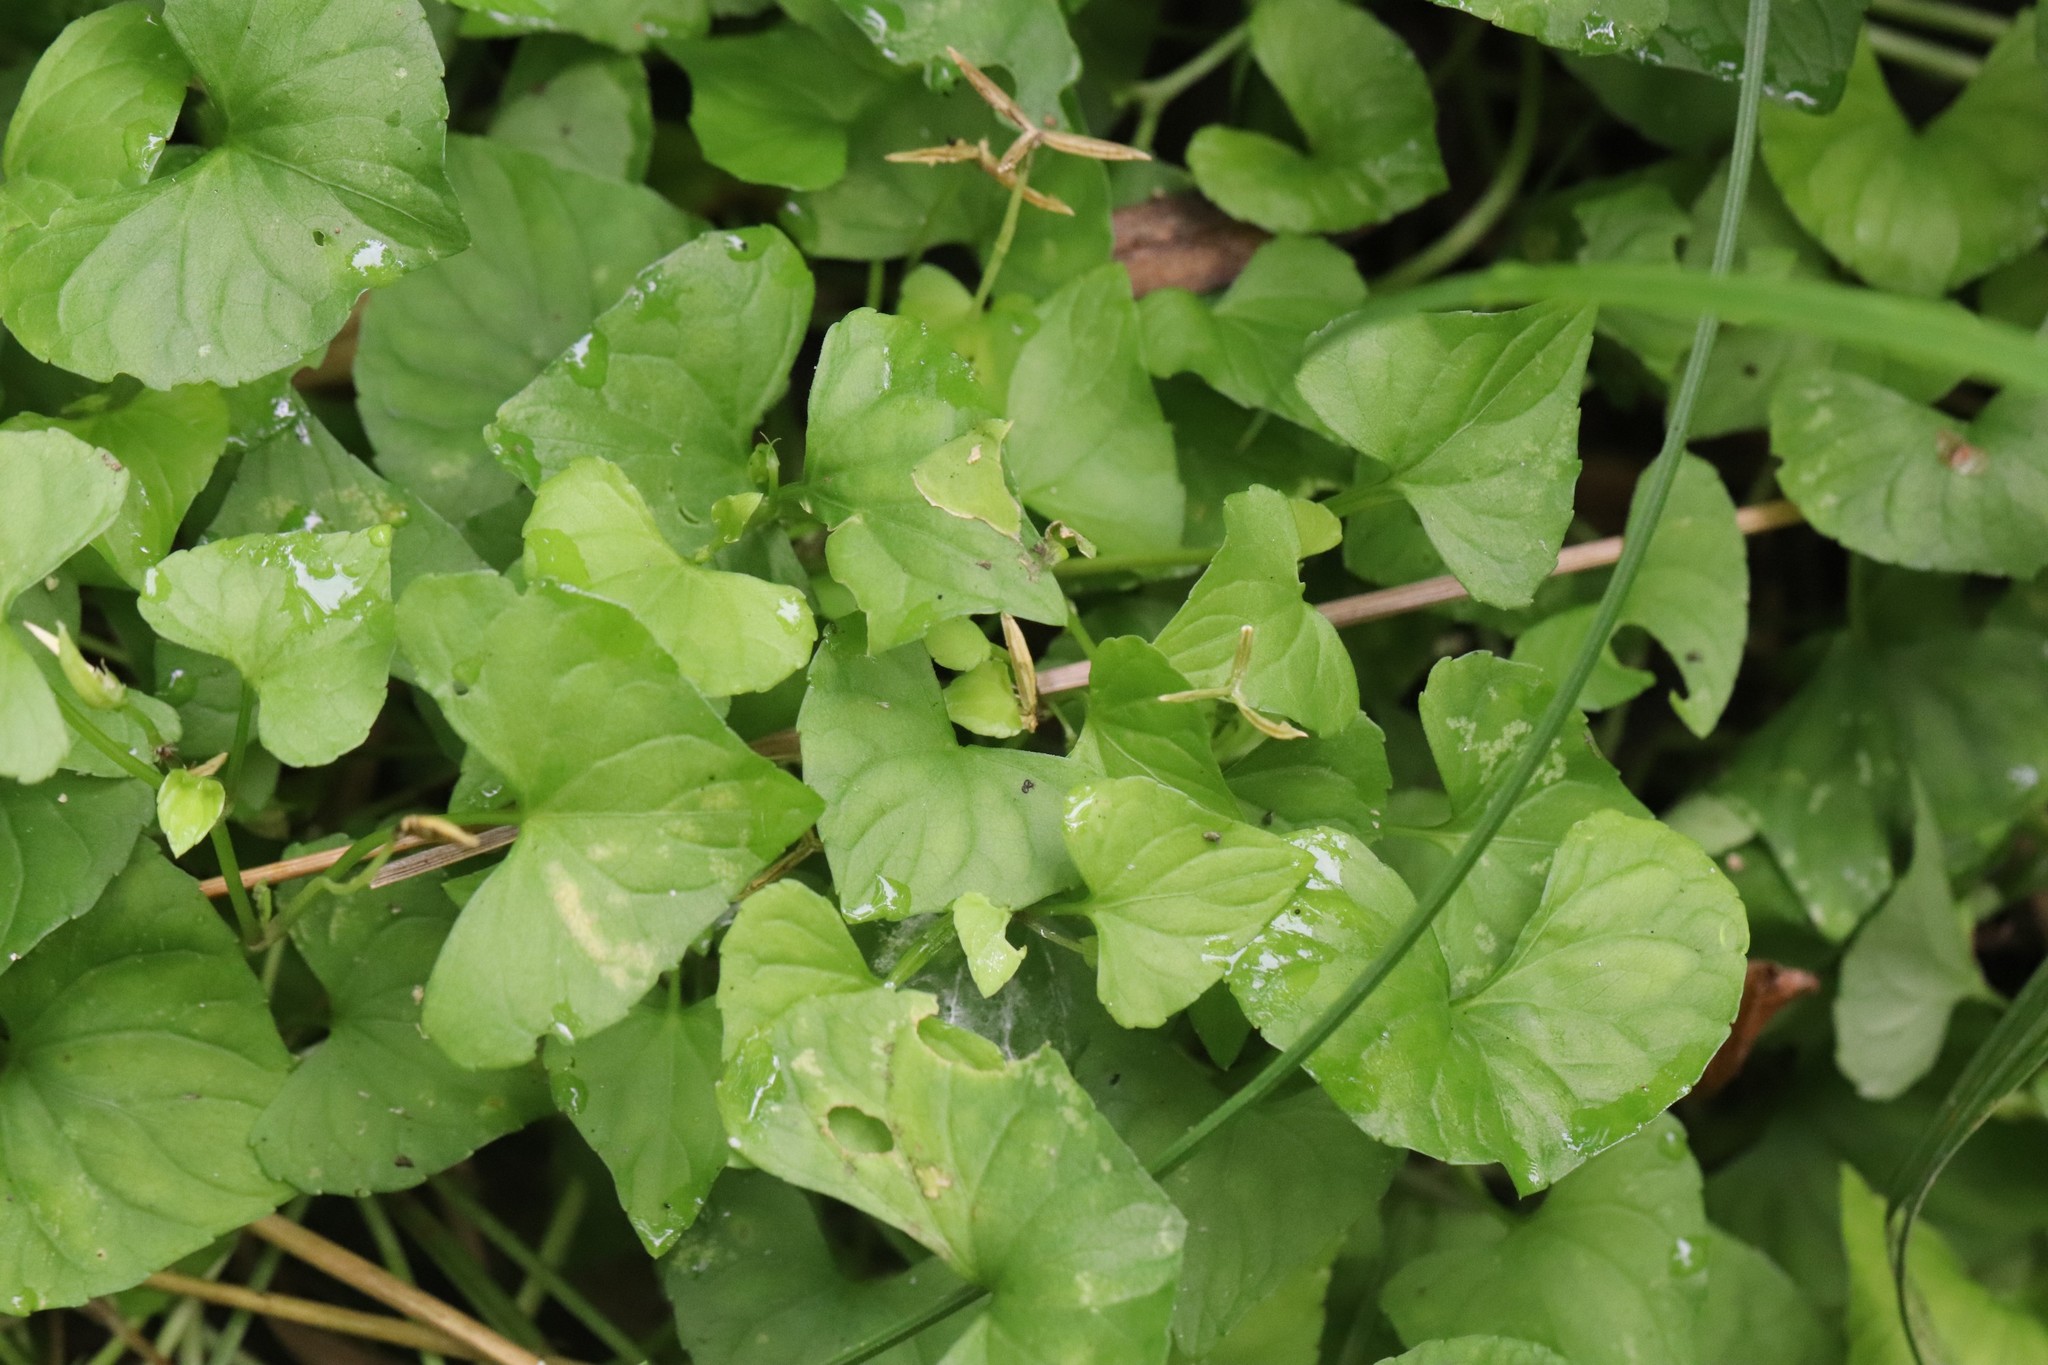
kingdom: Plantae
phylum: Tracheophyta
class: Magnoliopsida
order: Malpighiales
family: Violaceae
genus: Viola
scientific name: Viola
